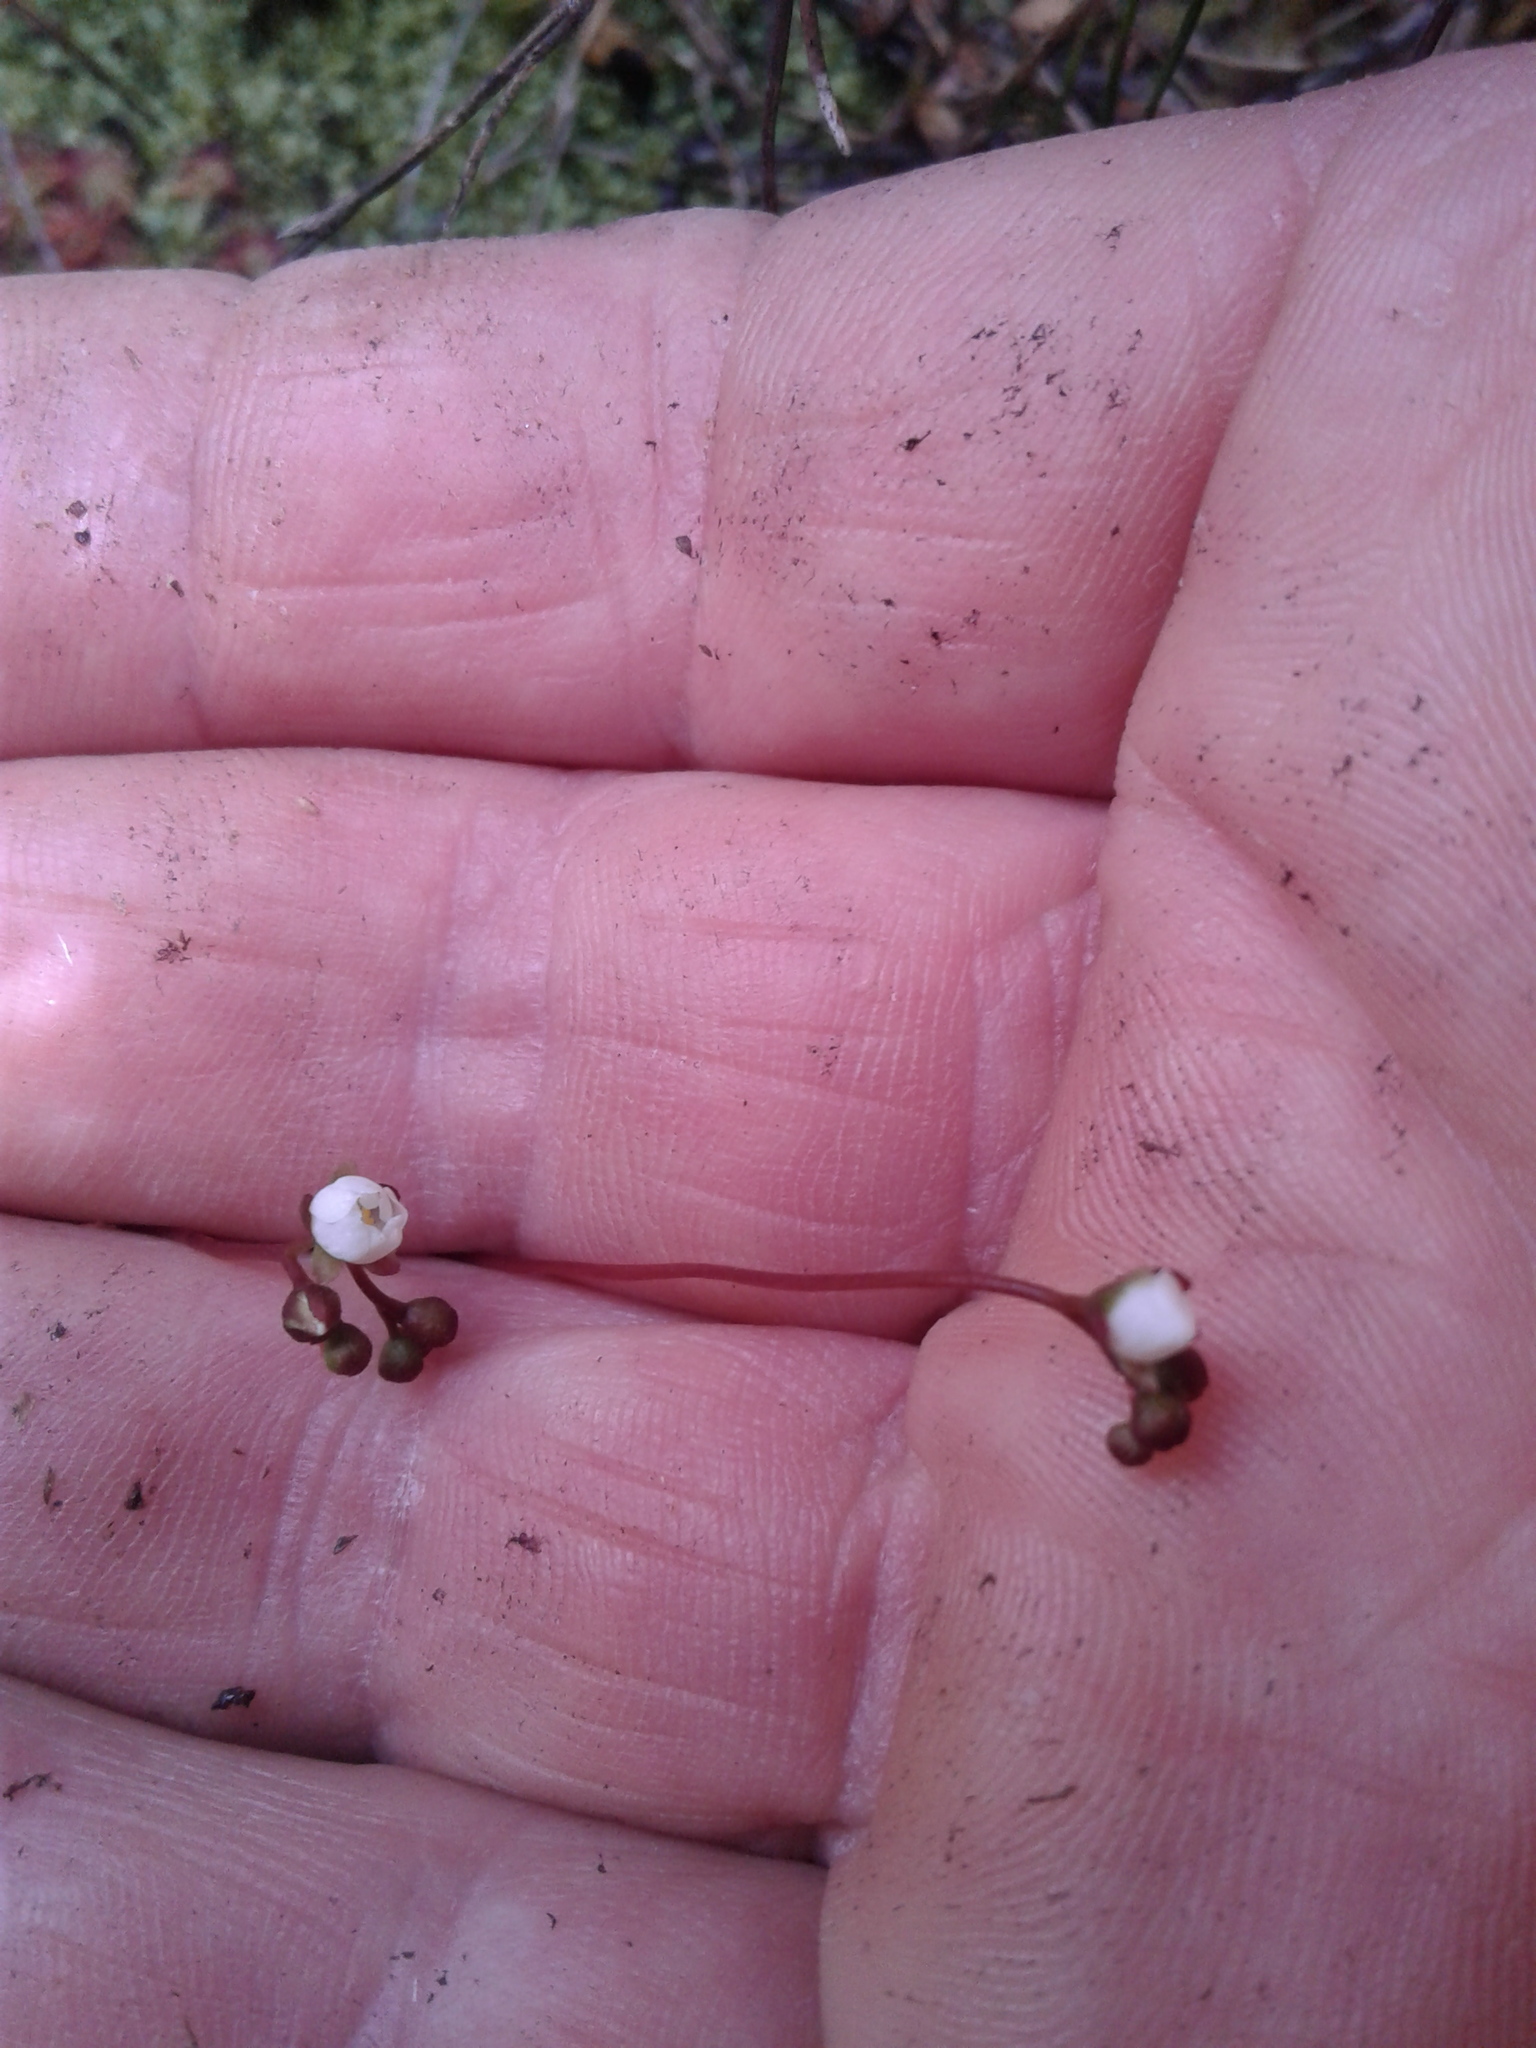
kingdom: Plantae
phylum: Tracheophyta
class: Magnoliopsida
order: Caryophyllales
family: Droseraceae
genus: Drosera
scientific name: Drosera spatulata
